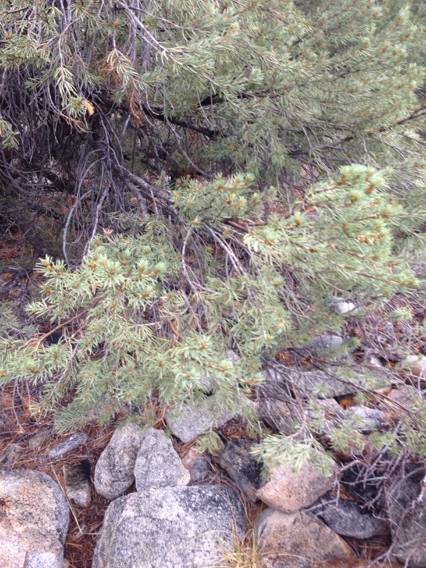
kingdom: Plantae
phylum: Tracheophyta
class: Pinopsida
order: Pinales
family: Pinaceae
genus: Pinus
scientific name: Pinus monophylla
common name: One-leaved nut pine
